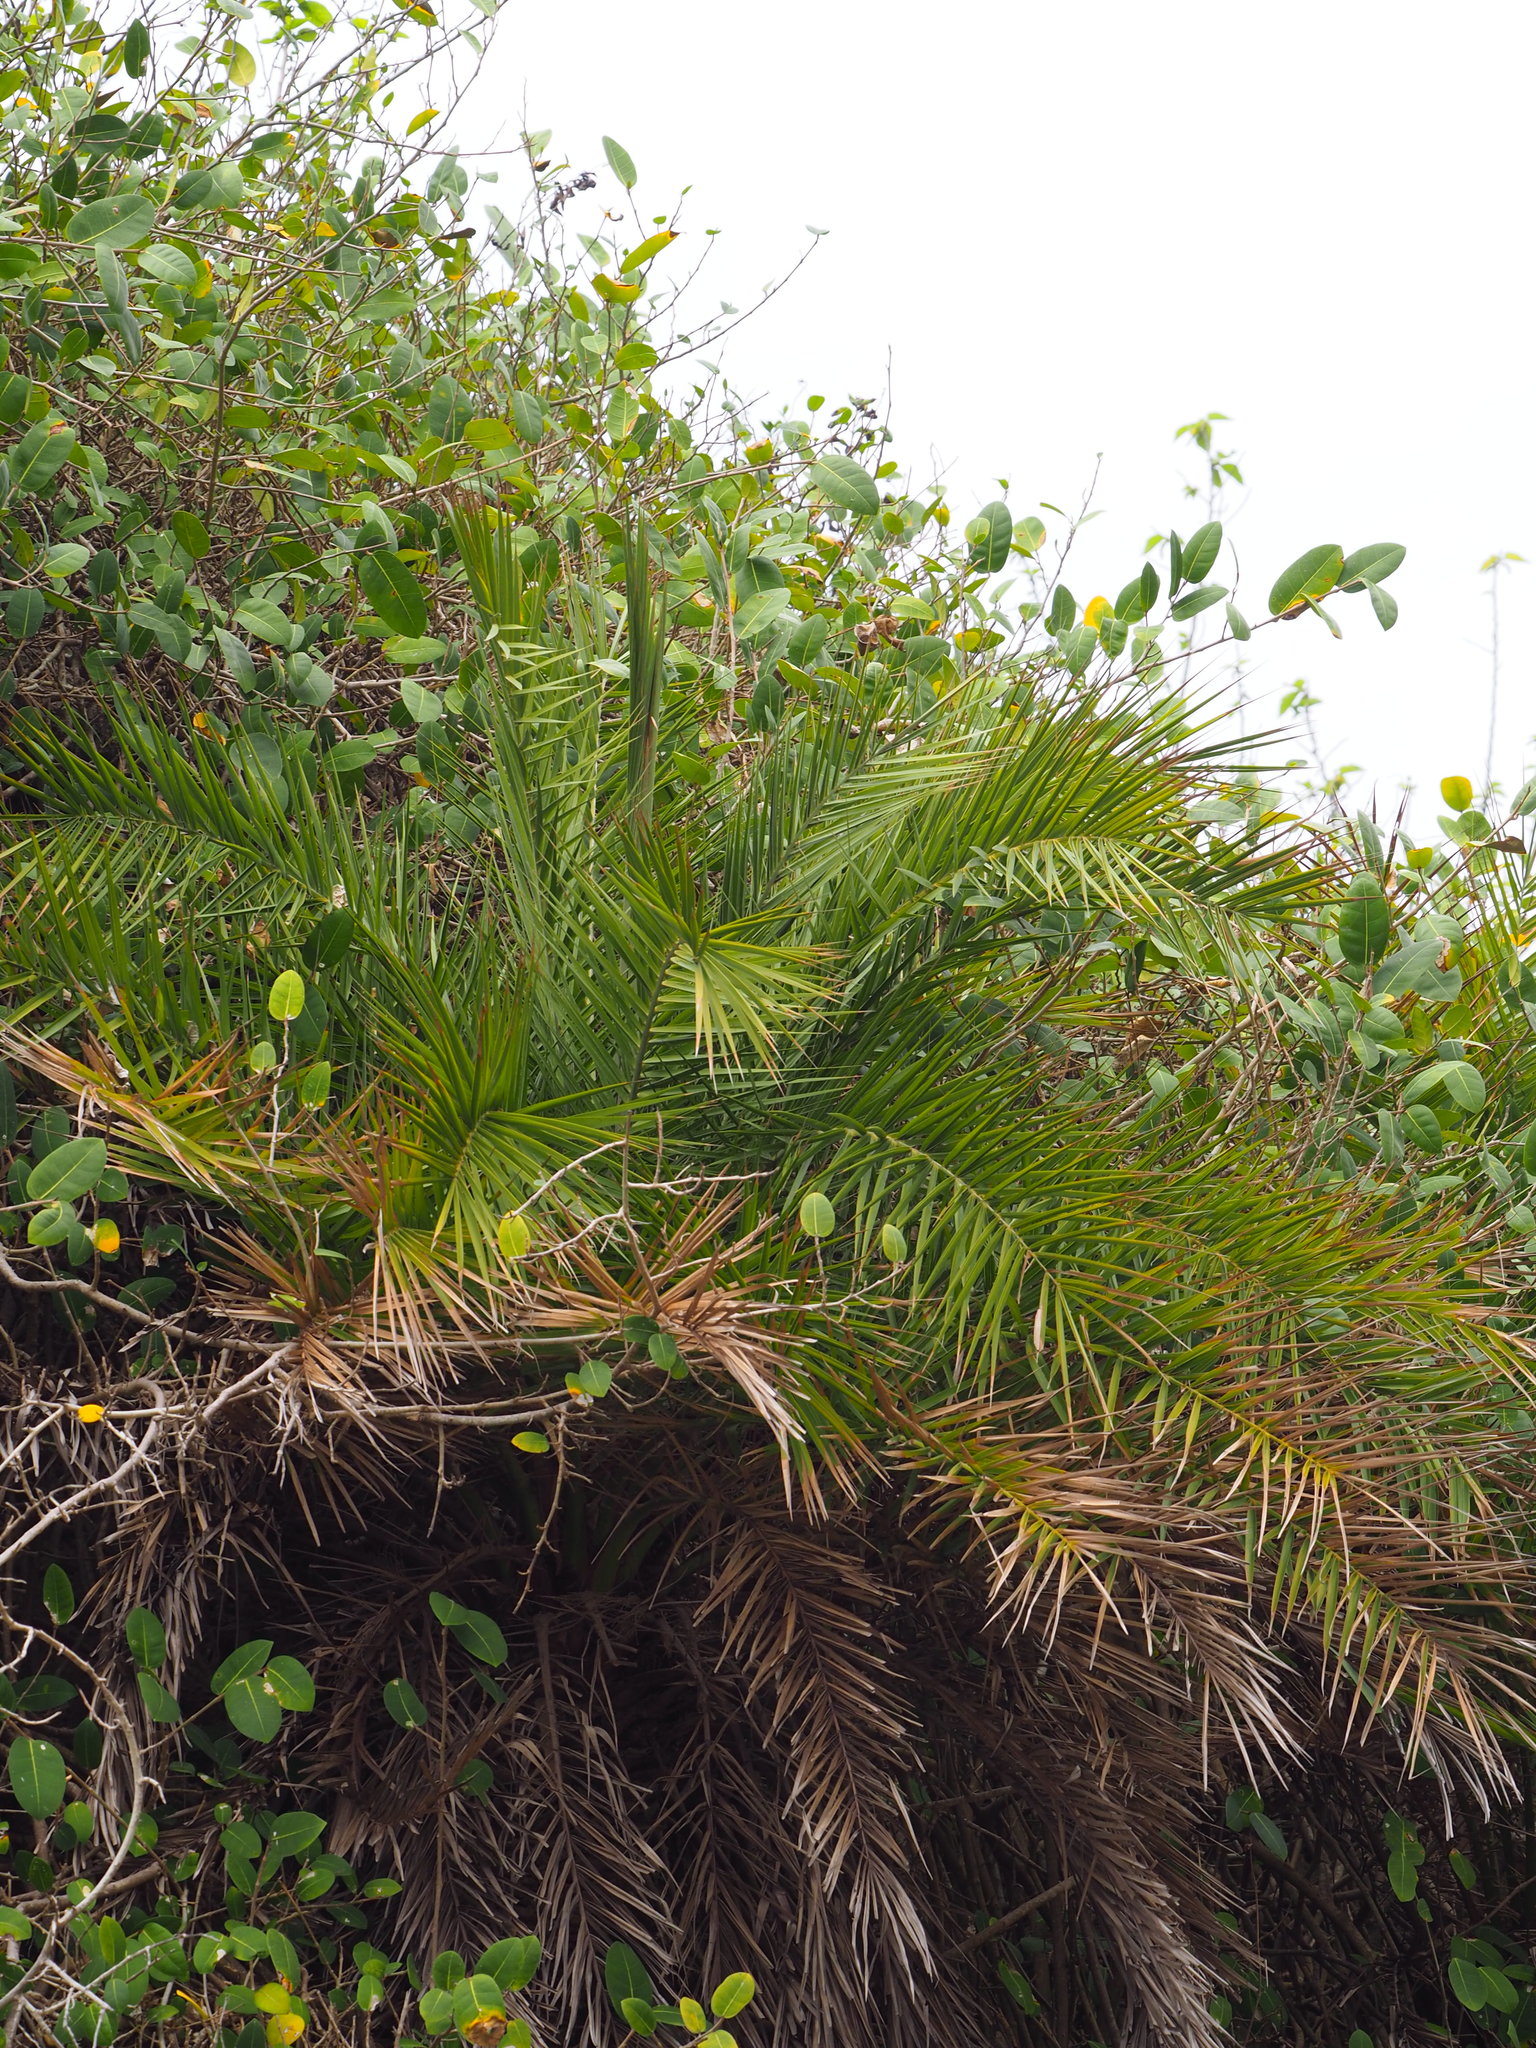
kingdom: Plantae
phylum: Tracheophyta
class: Liliopsida
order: Arecales
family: Arecaceae
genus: Phoenix
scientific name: Phoenix loureiroi
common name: Loureiro's palm
